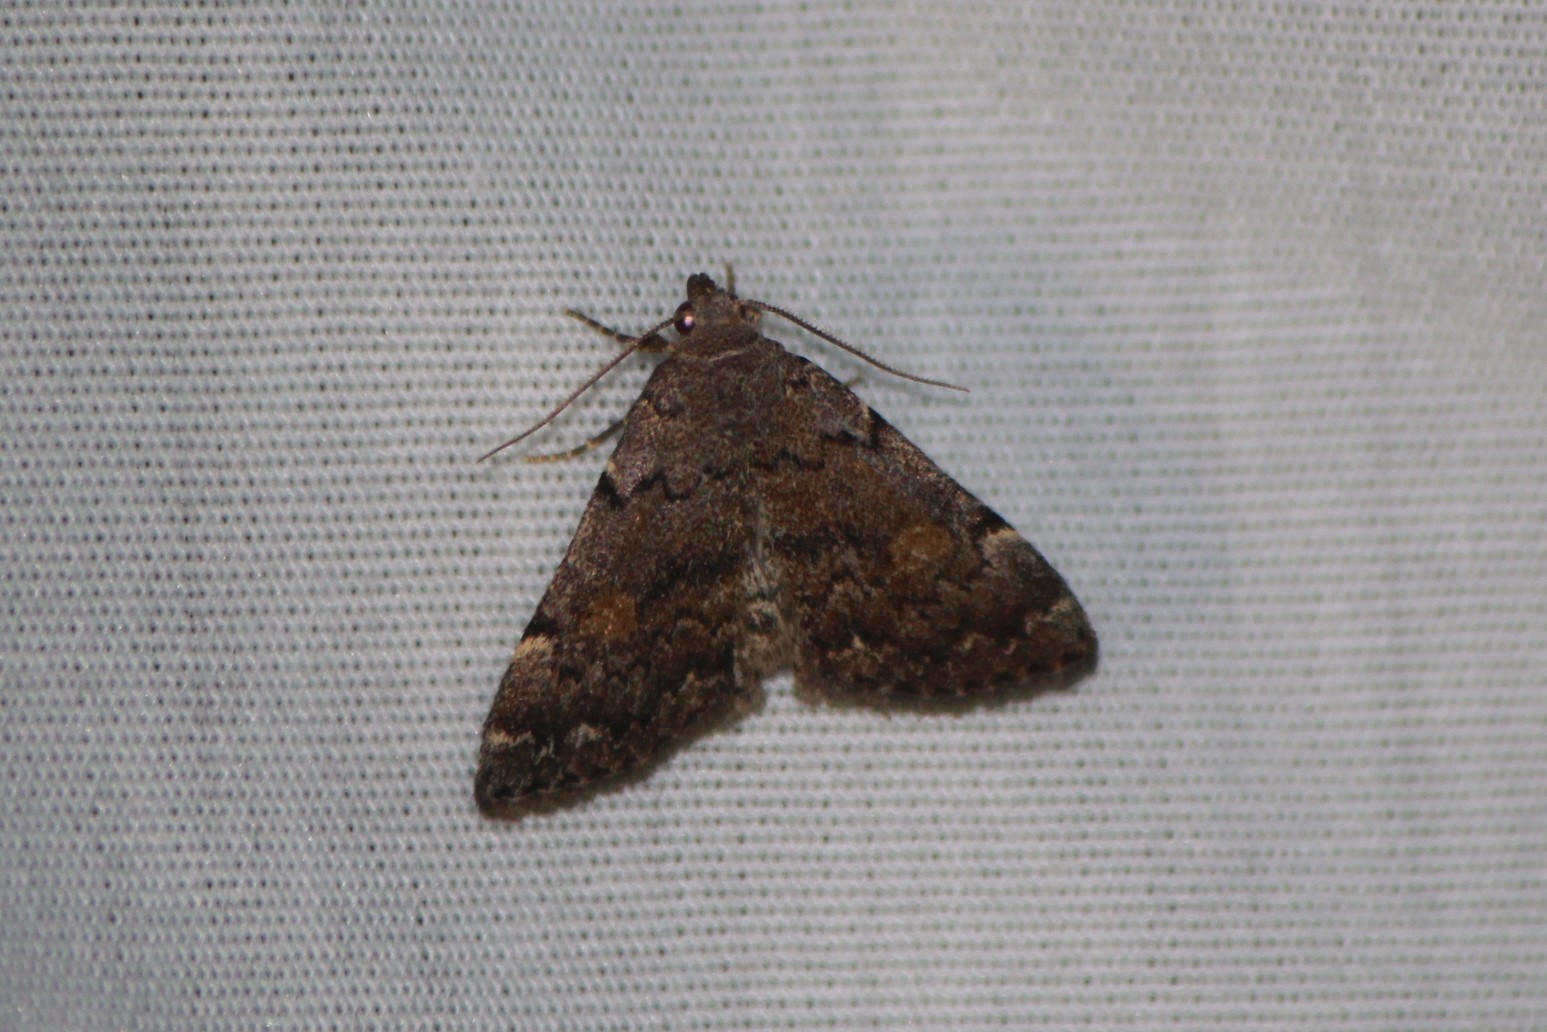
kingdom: Animalia
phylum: Arthropoda
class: Insecta
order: Lepidoptera
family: Erebidae
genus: Idia
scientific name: Idia aemula
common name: Common idia moth
